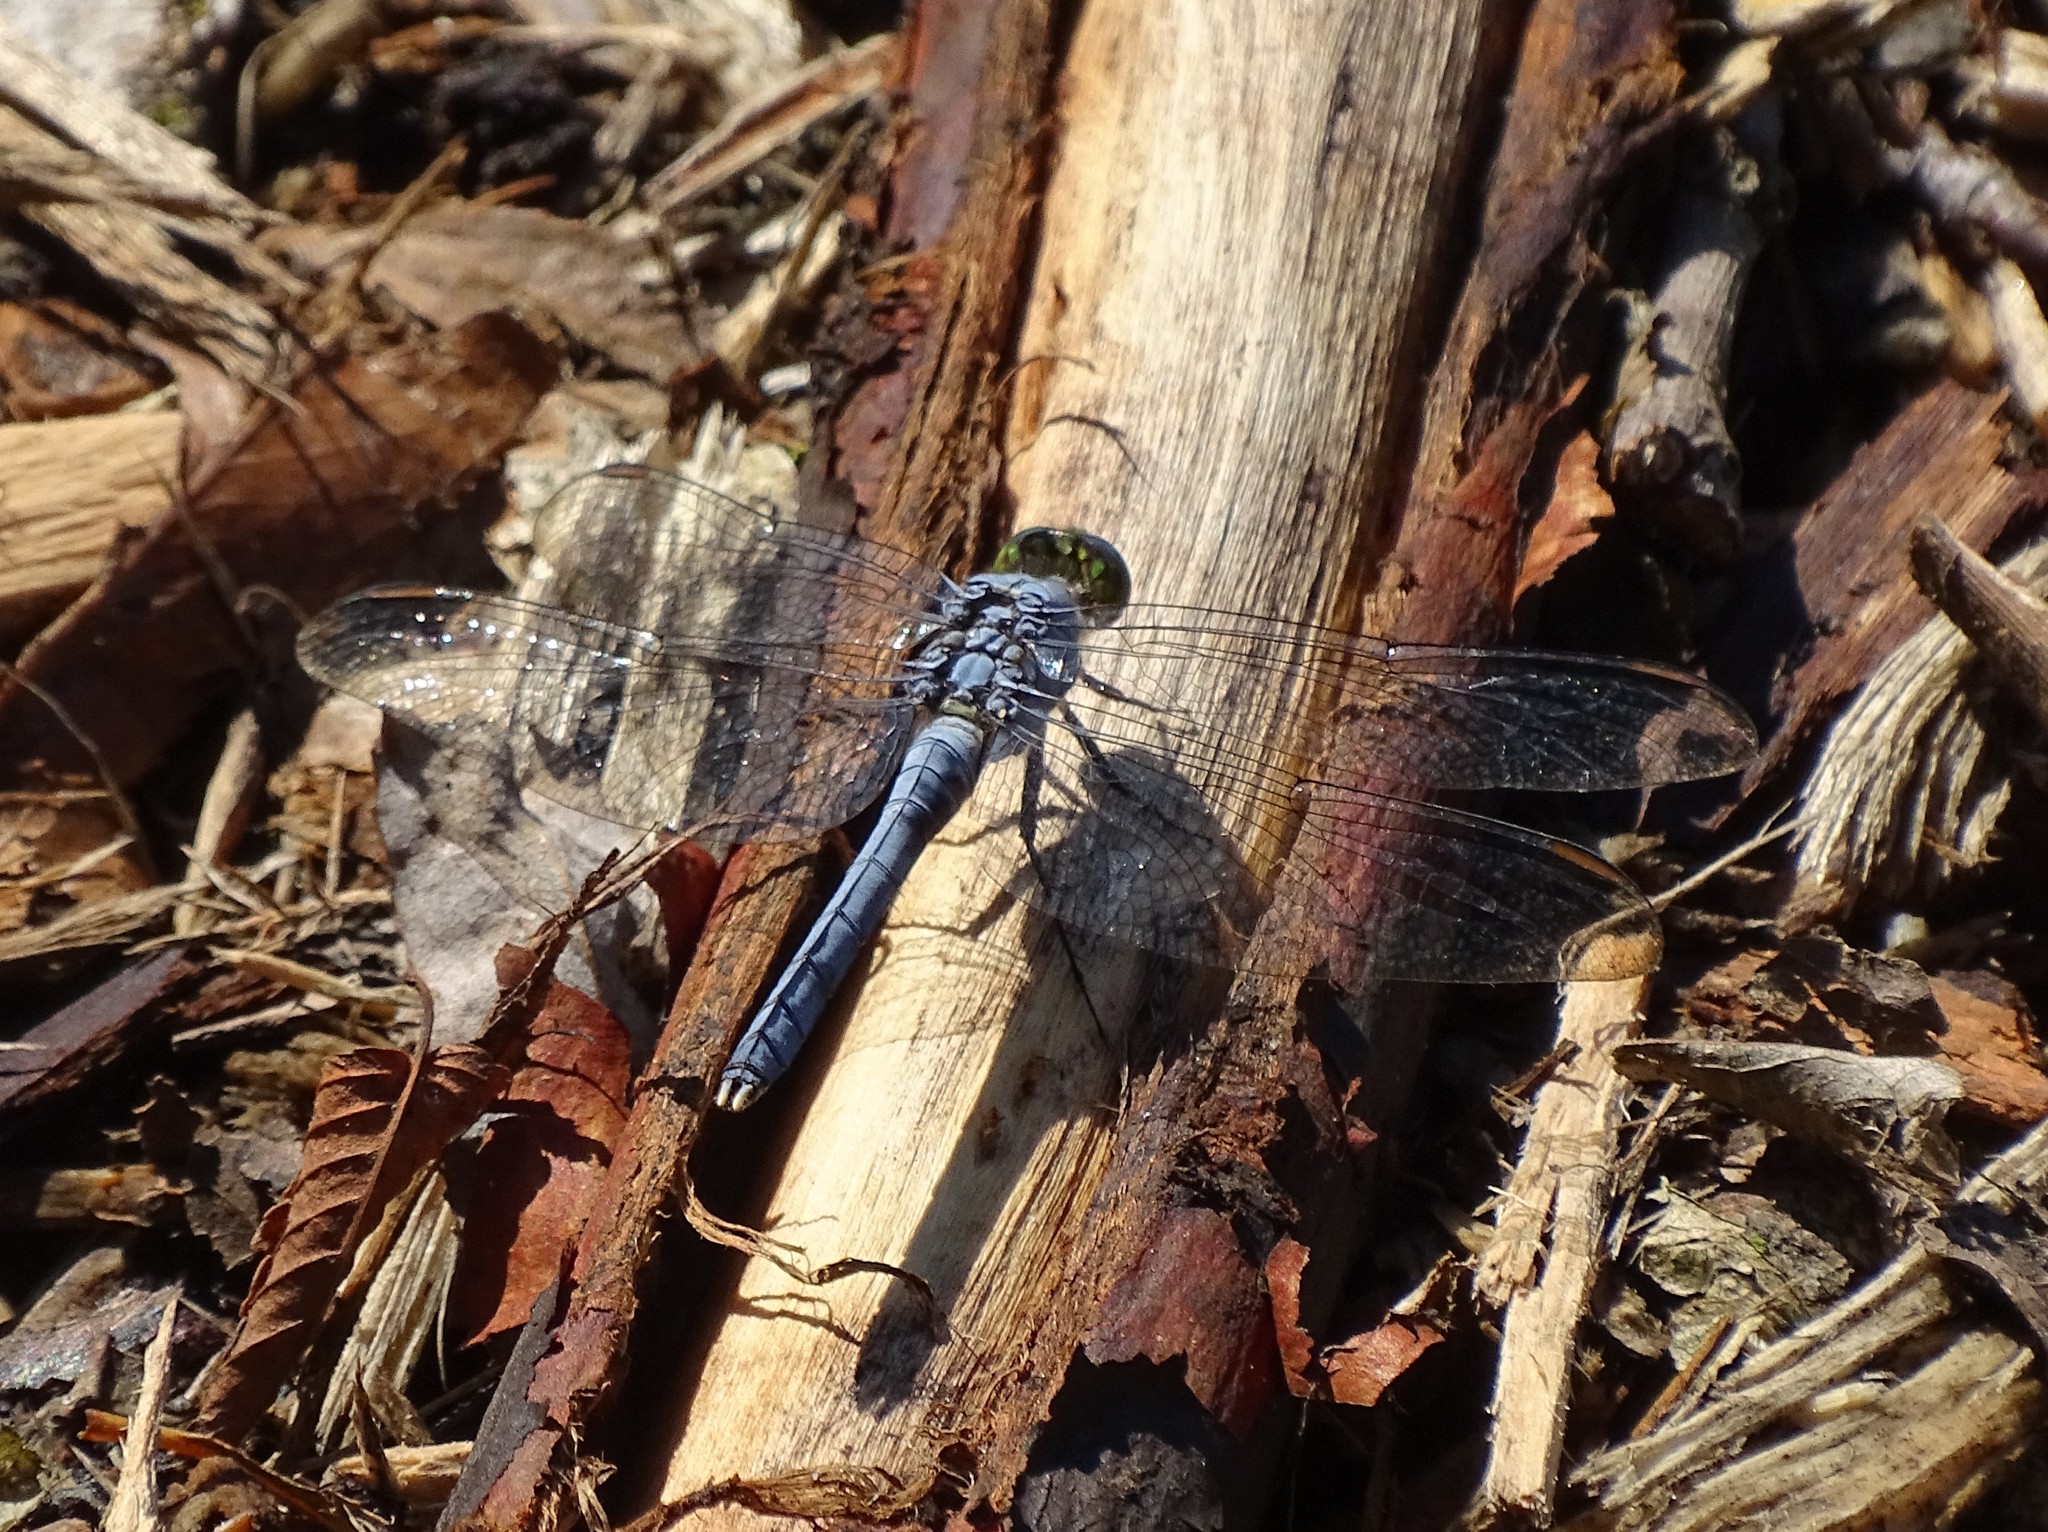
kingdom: Animalia
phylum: Arthropoda
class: Insecta
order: Odonata
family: Libellulidae
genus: Erythemis
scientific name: Erythemis simplicicollis
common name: Eastern pondhawk
